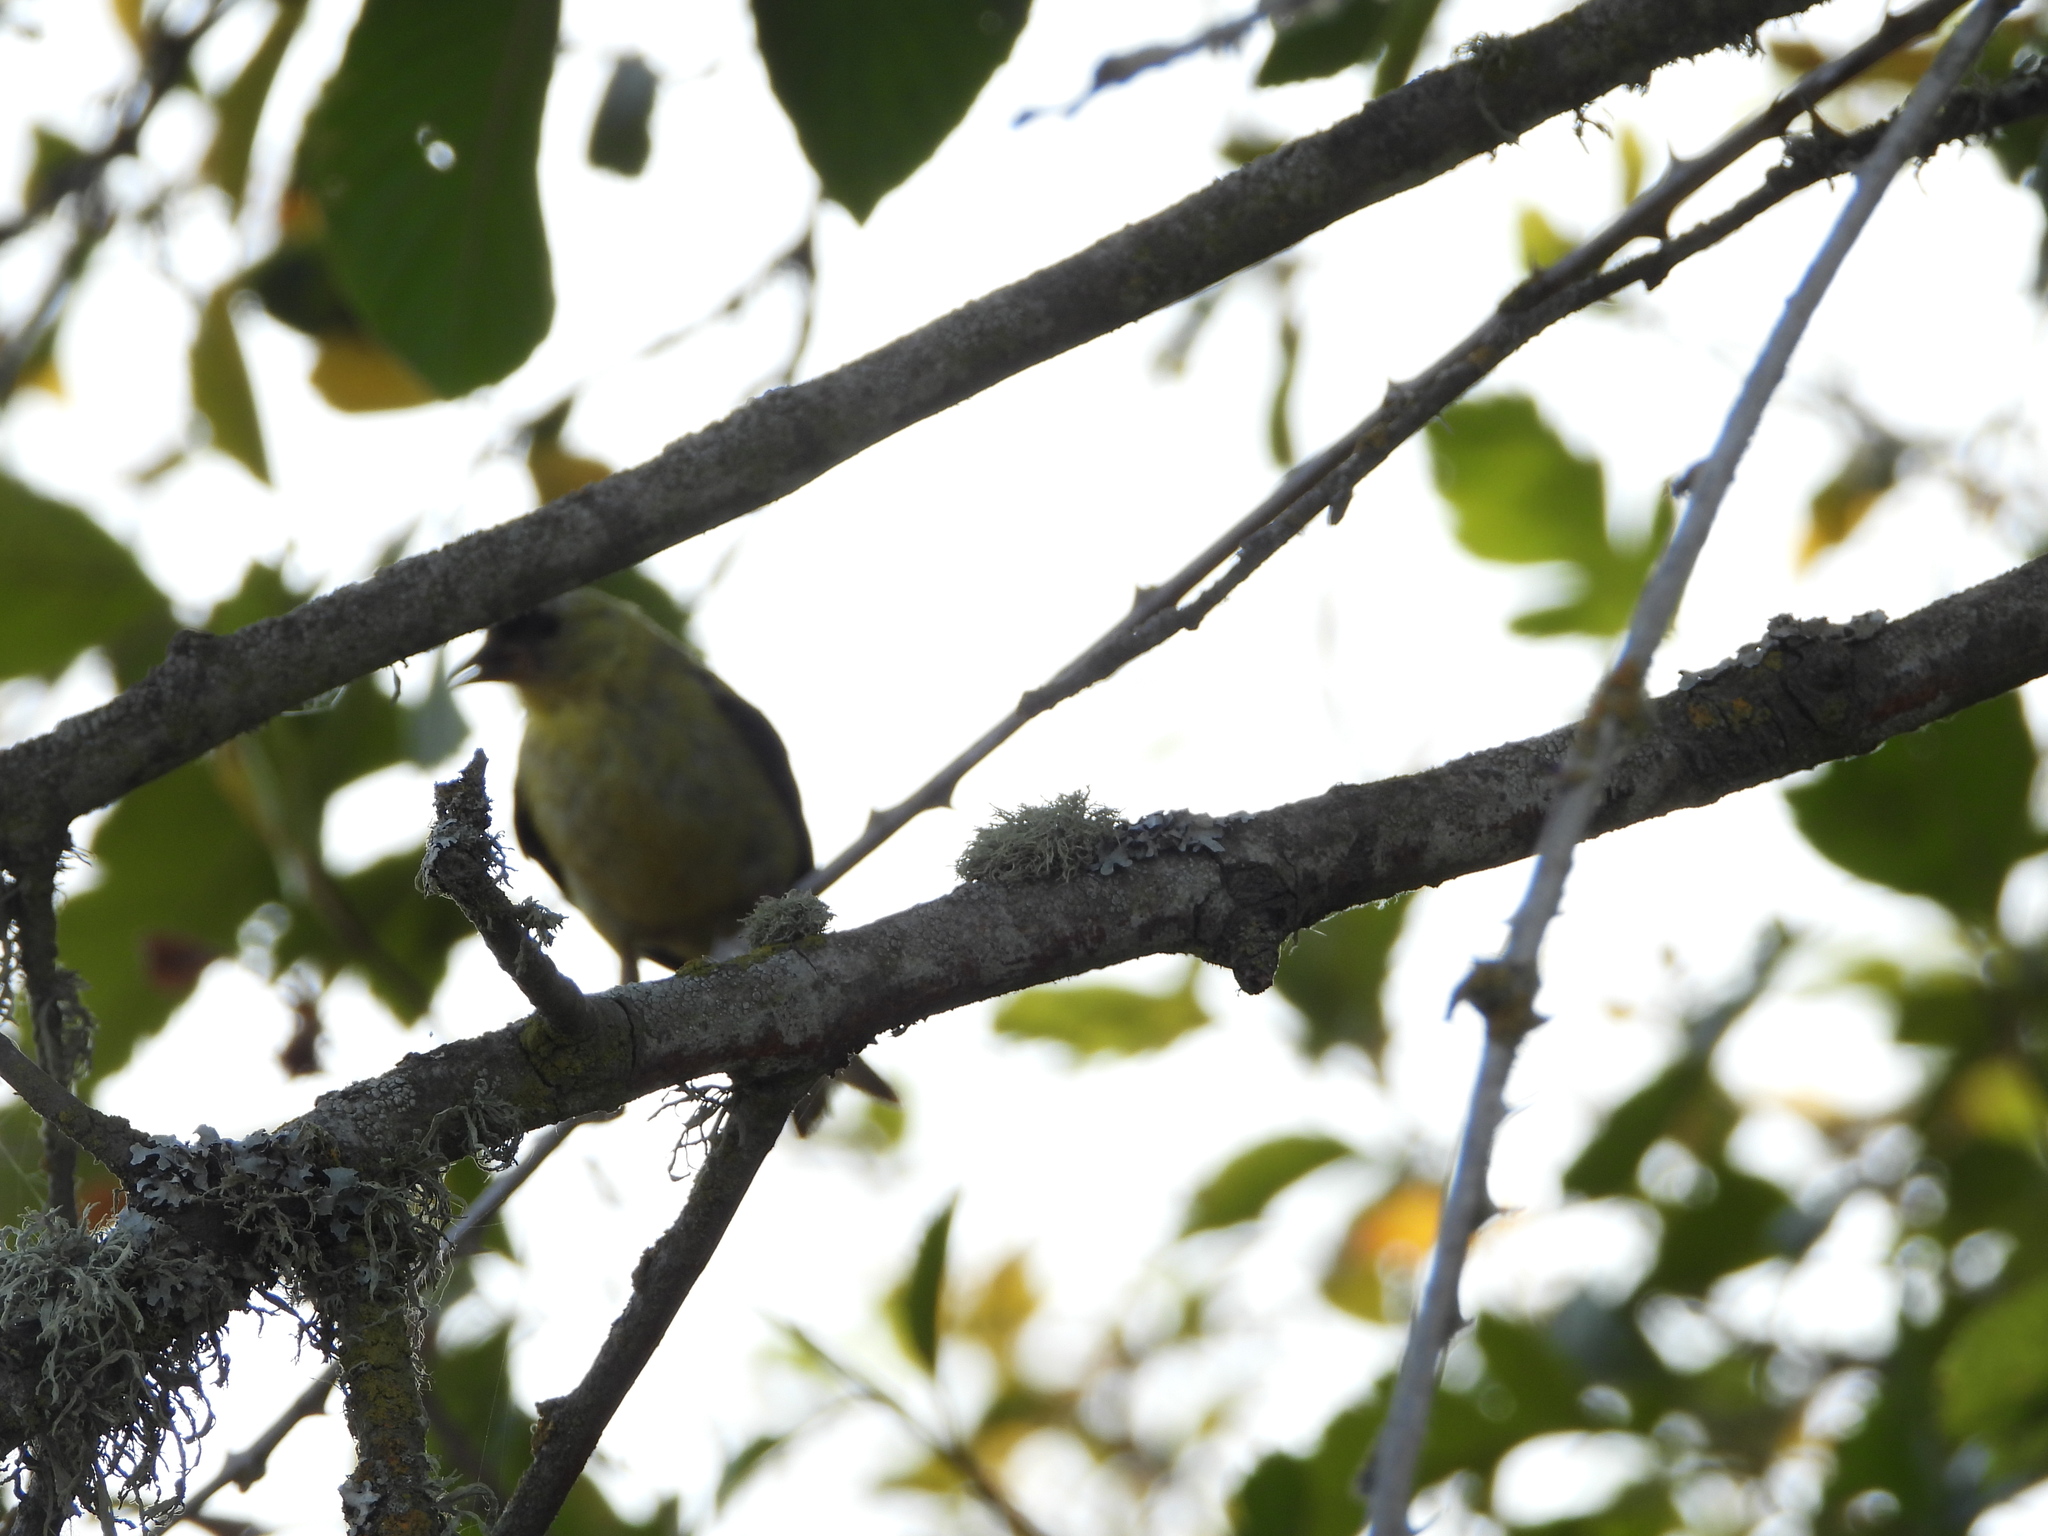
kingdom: Animalia
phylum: Chordata
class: Aves
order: Passeriformes
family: Fringillidae
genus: Spinus
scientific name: Spinus tristis
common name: American goldfinch
